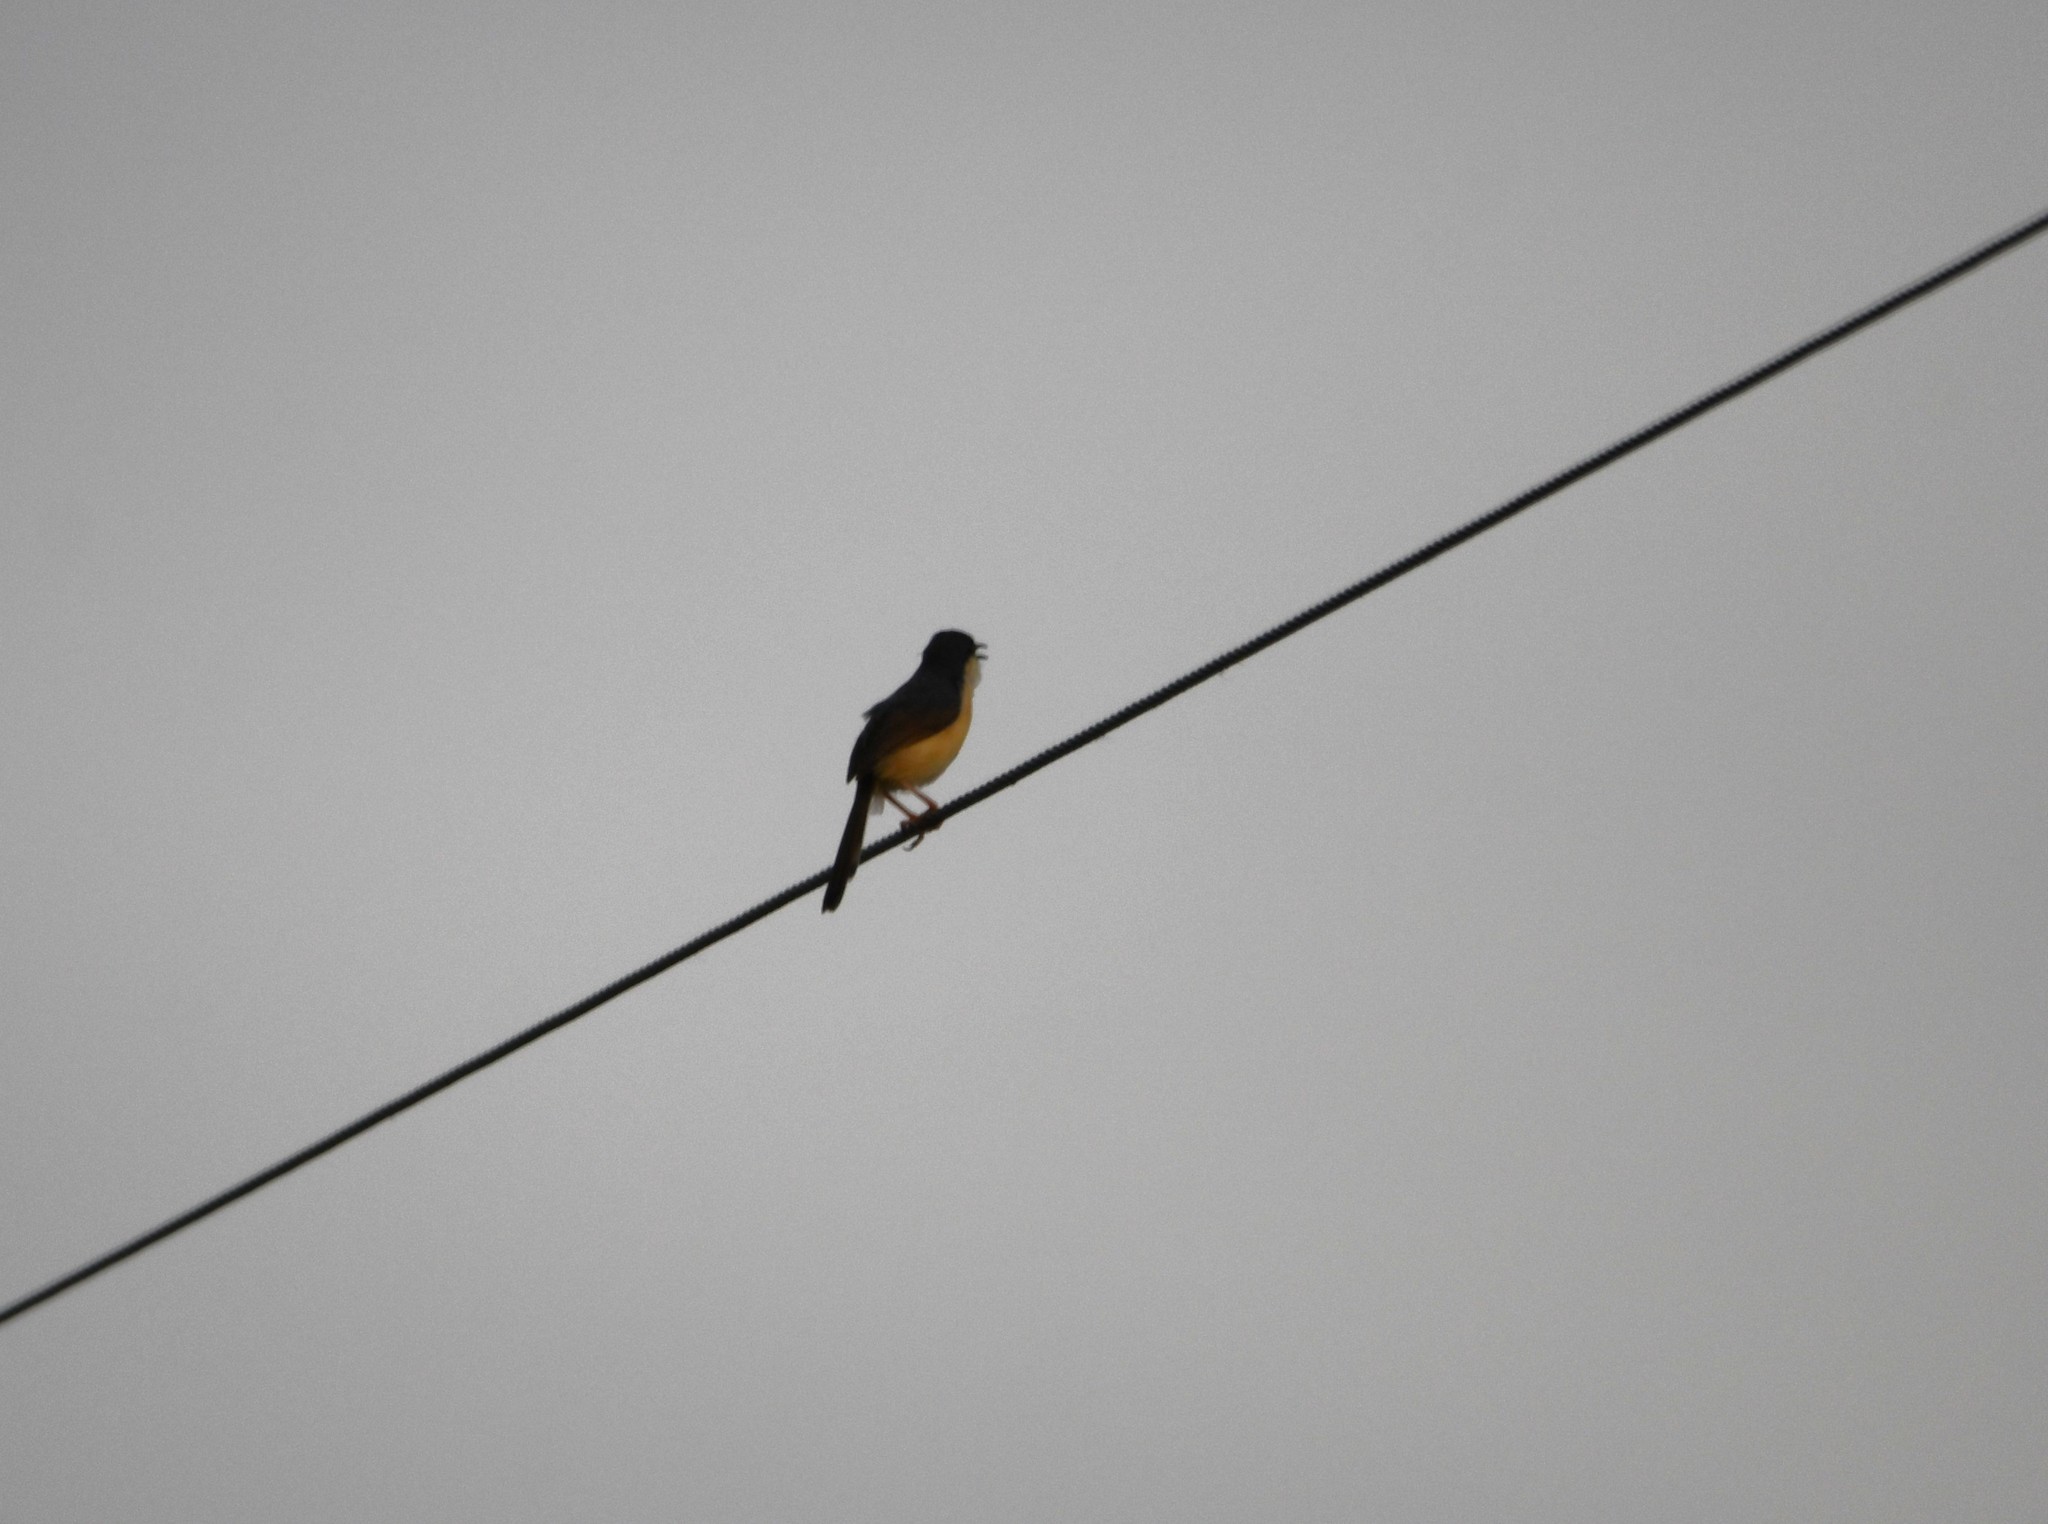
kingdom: Animalia
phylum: Chordata
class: Aves
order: Passeriformes
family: Cisticolidae
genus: Prinia
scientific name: Prinia socialis
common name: Ashy prinia
